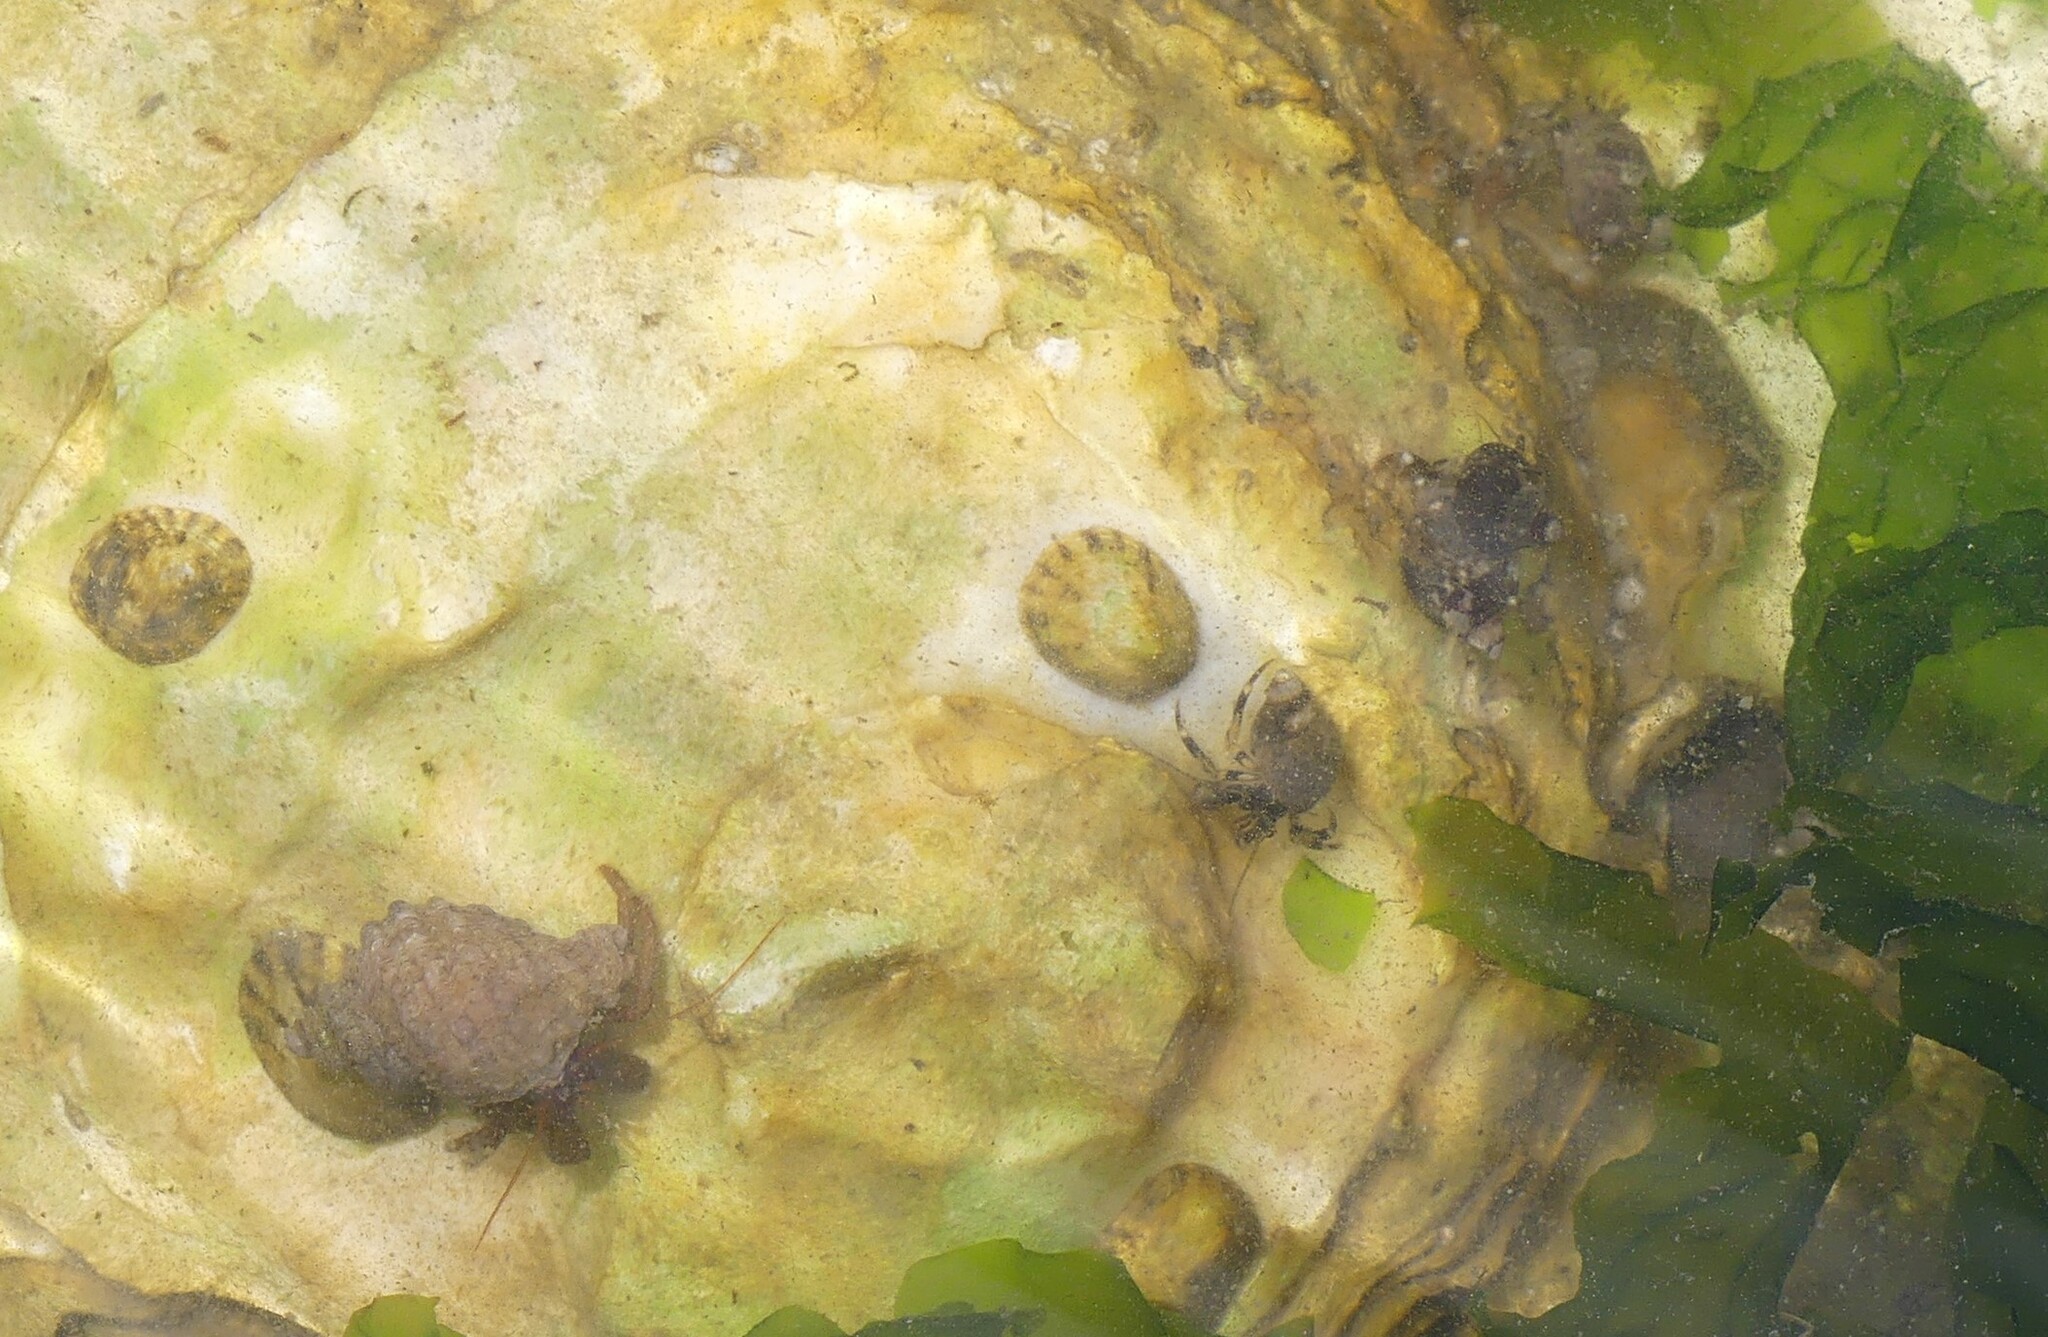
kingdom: Animalia
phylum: Arthropoda
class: Malacostraca
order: Decapoda
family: Paguridae
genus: Pagurus
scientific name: Pagurus granosimanus
